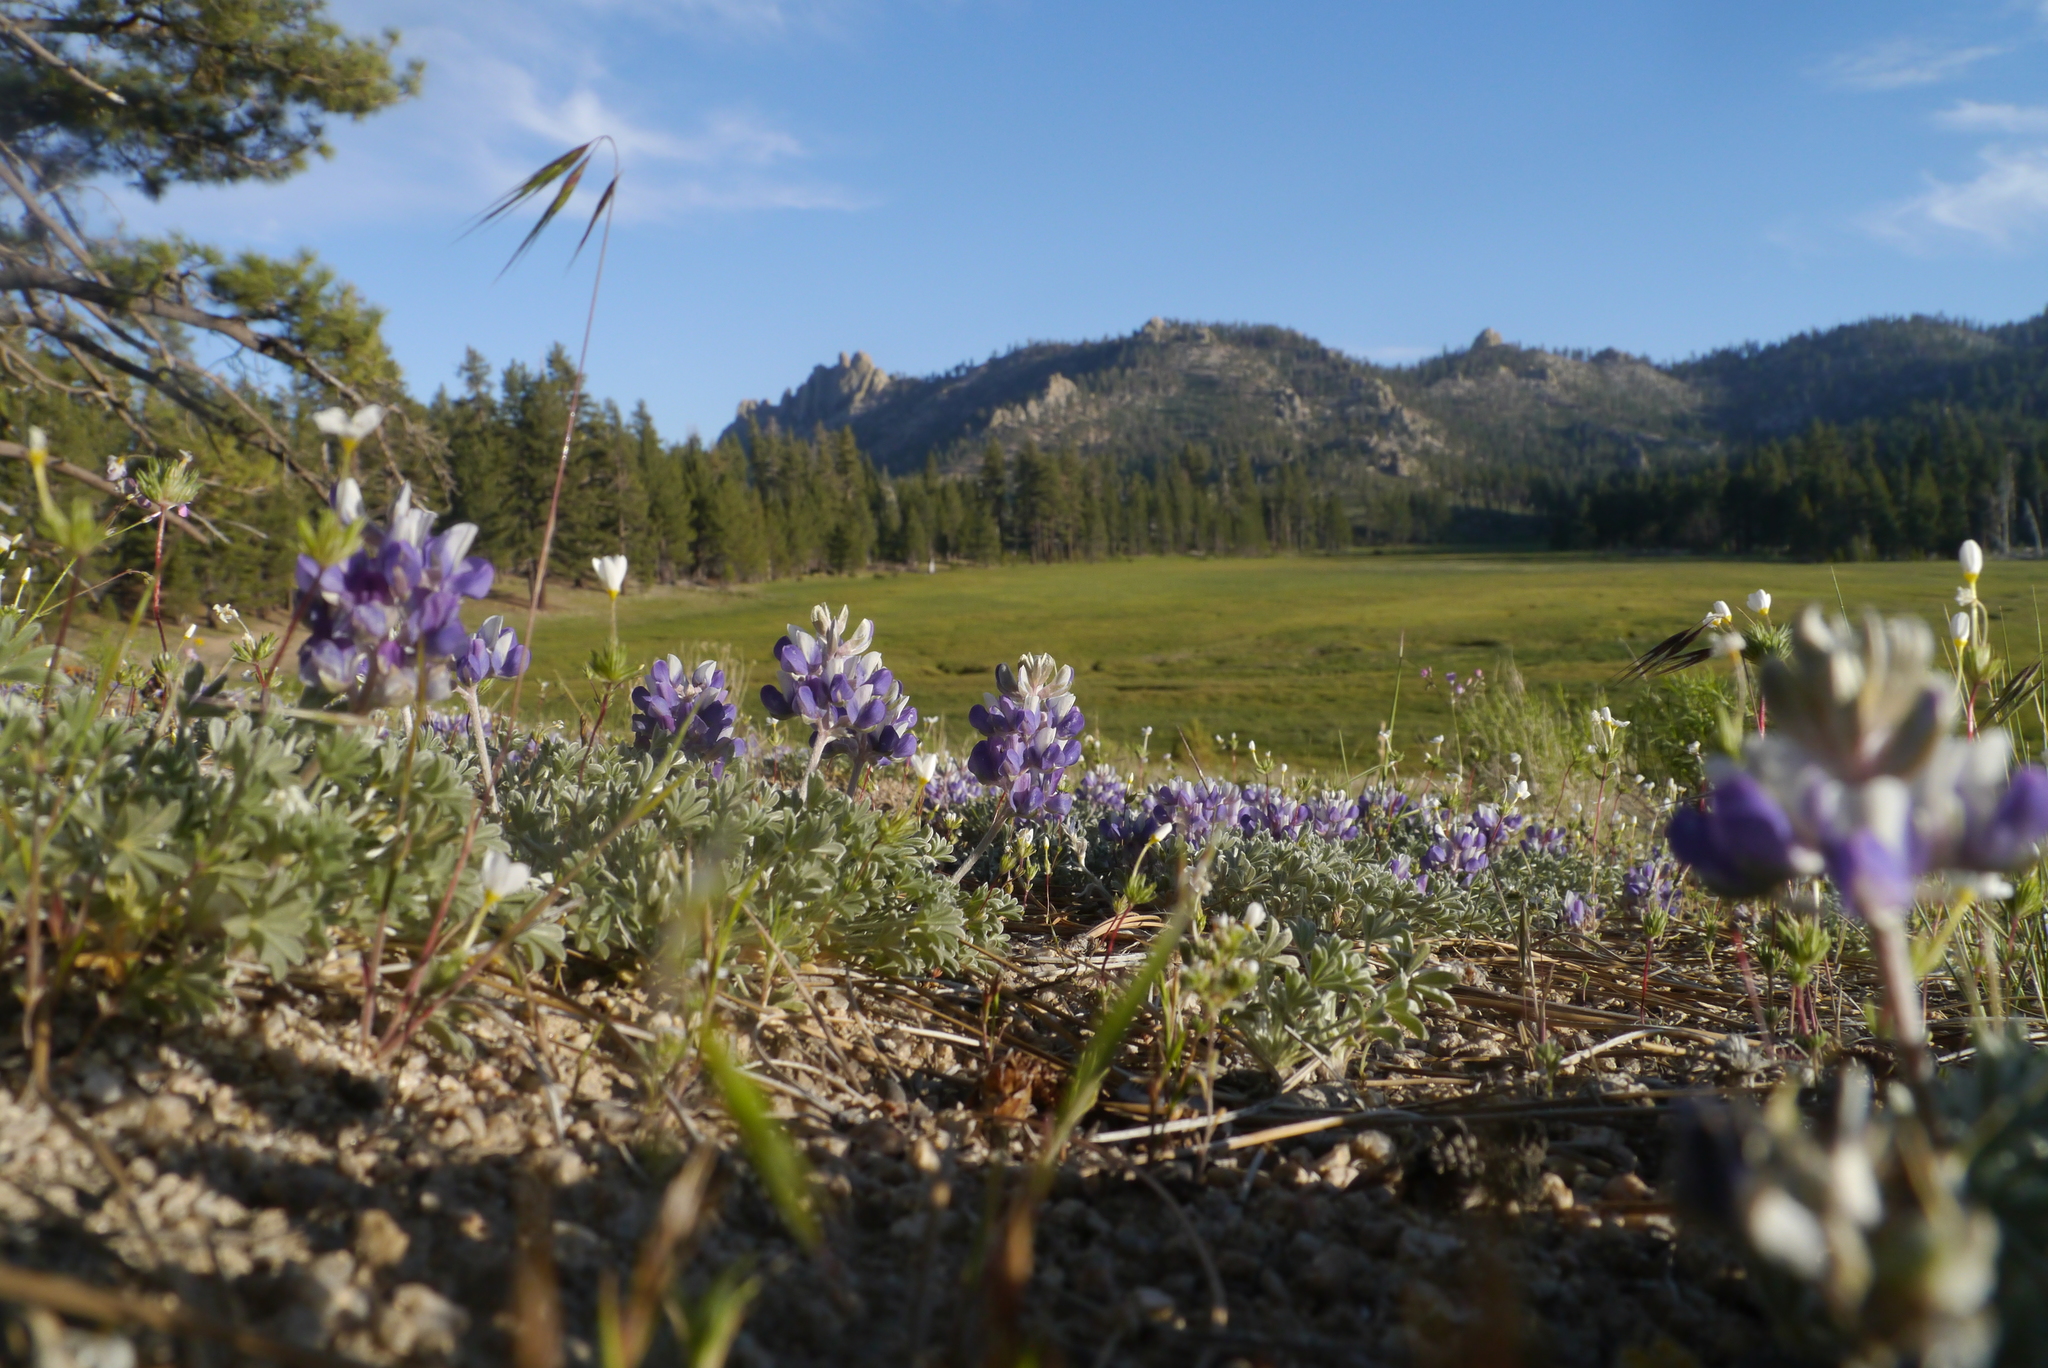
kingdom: Plantae
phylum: Tracheophyta
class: Magnoliopsida
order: Fabales
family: Fabaceae
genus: Lupinus
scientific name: Lupinus breweri
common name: Brewer's lupine
